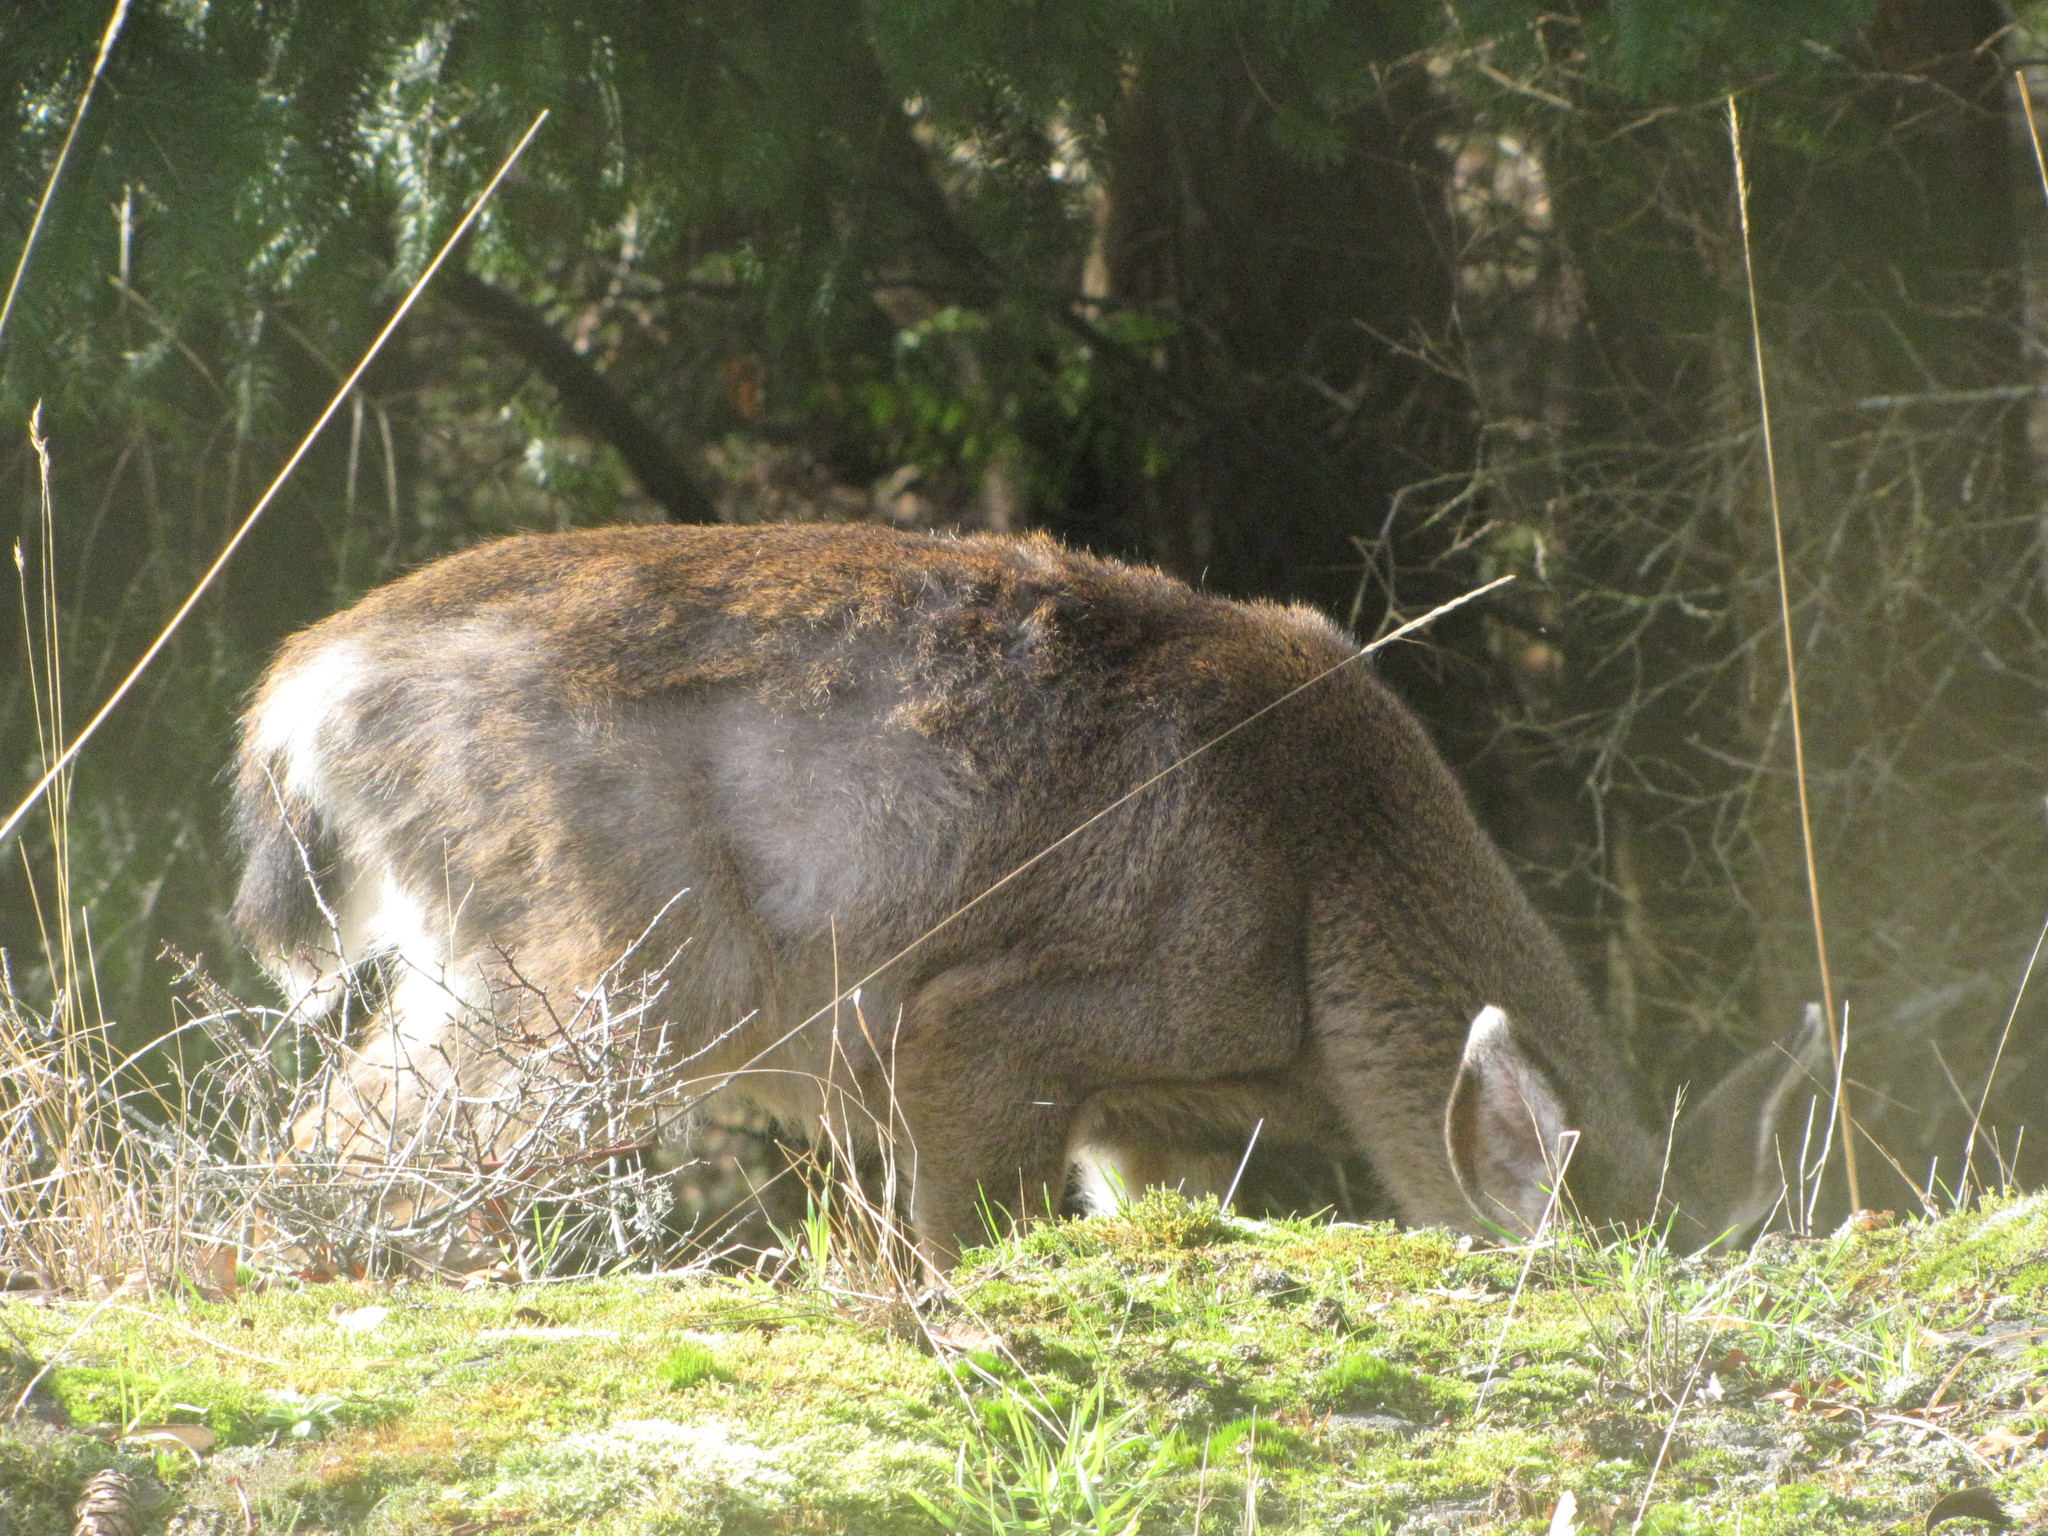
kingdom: Animalia
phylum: Chordata
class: Mammalia
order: Artiodactyla
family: Cervidae
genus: Odocoileus
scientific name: Odocoileus hemionus
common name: Mule deer
